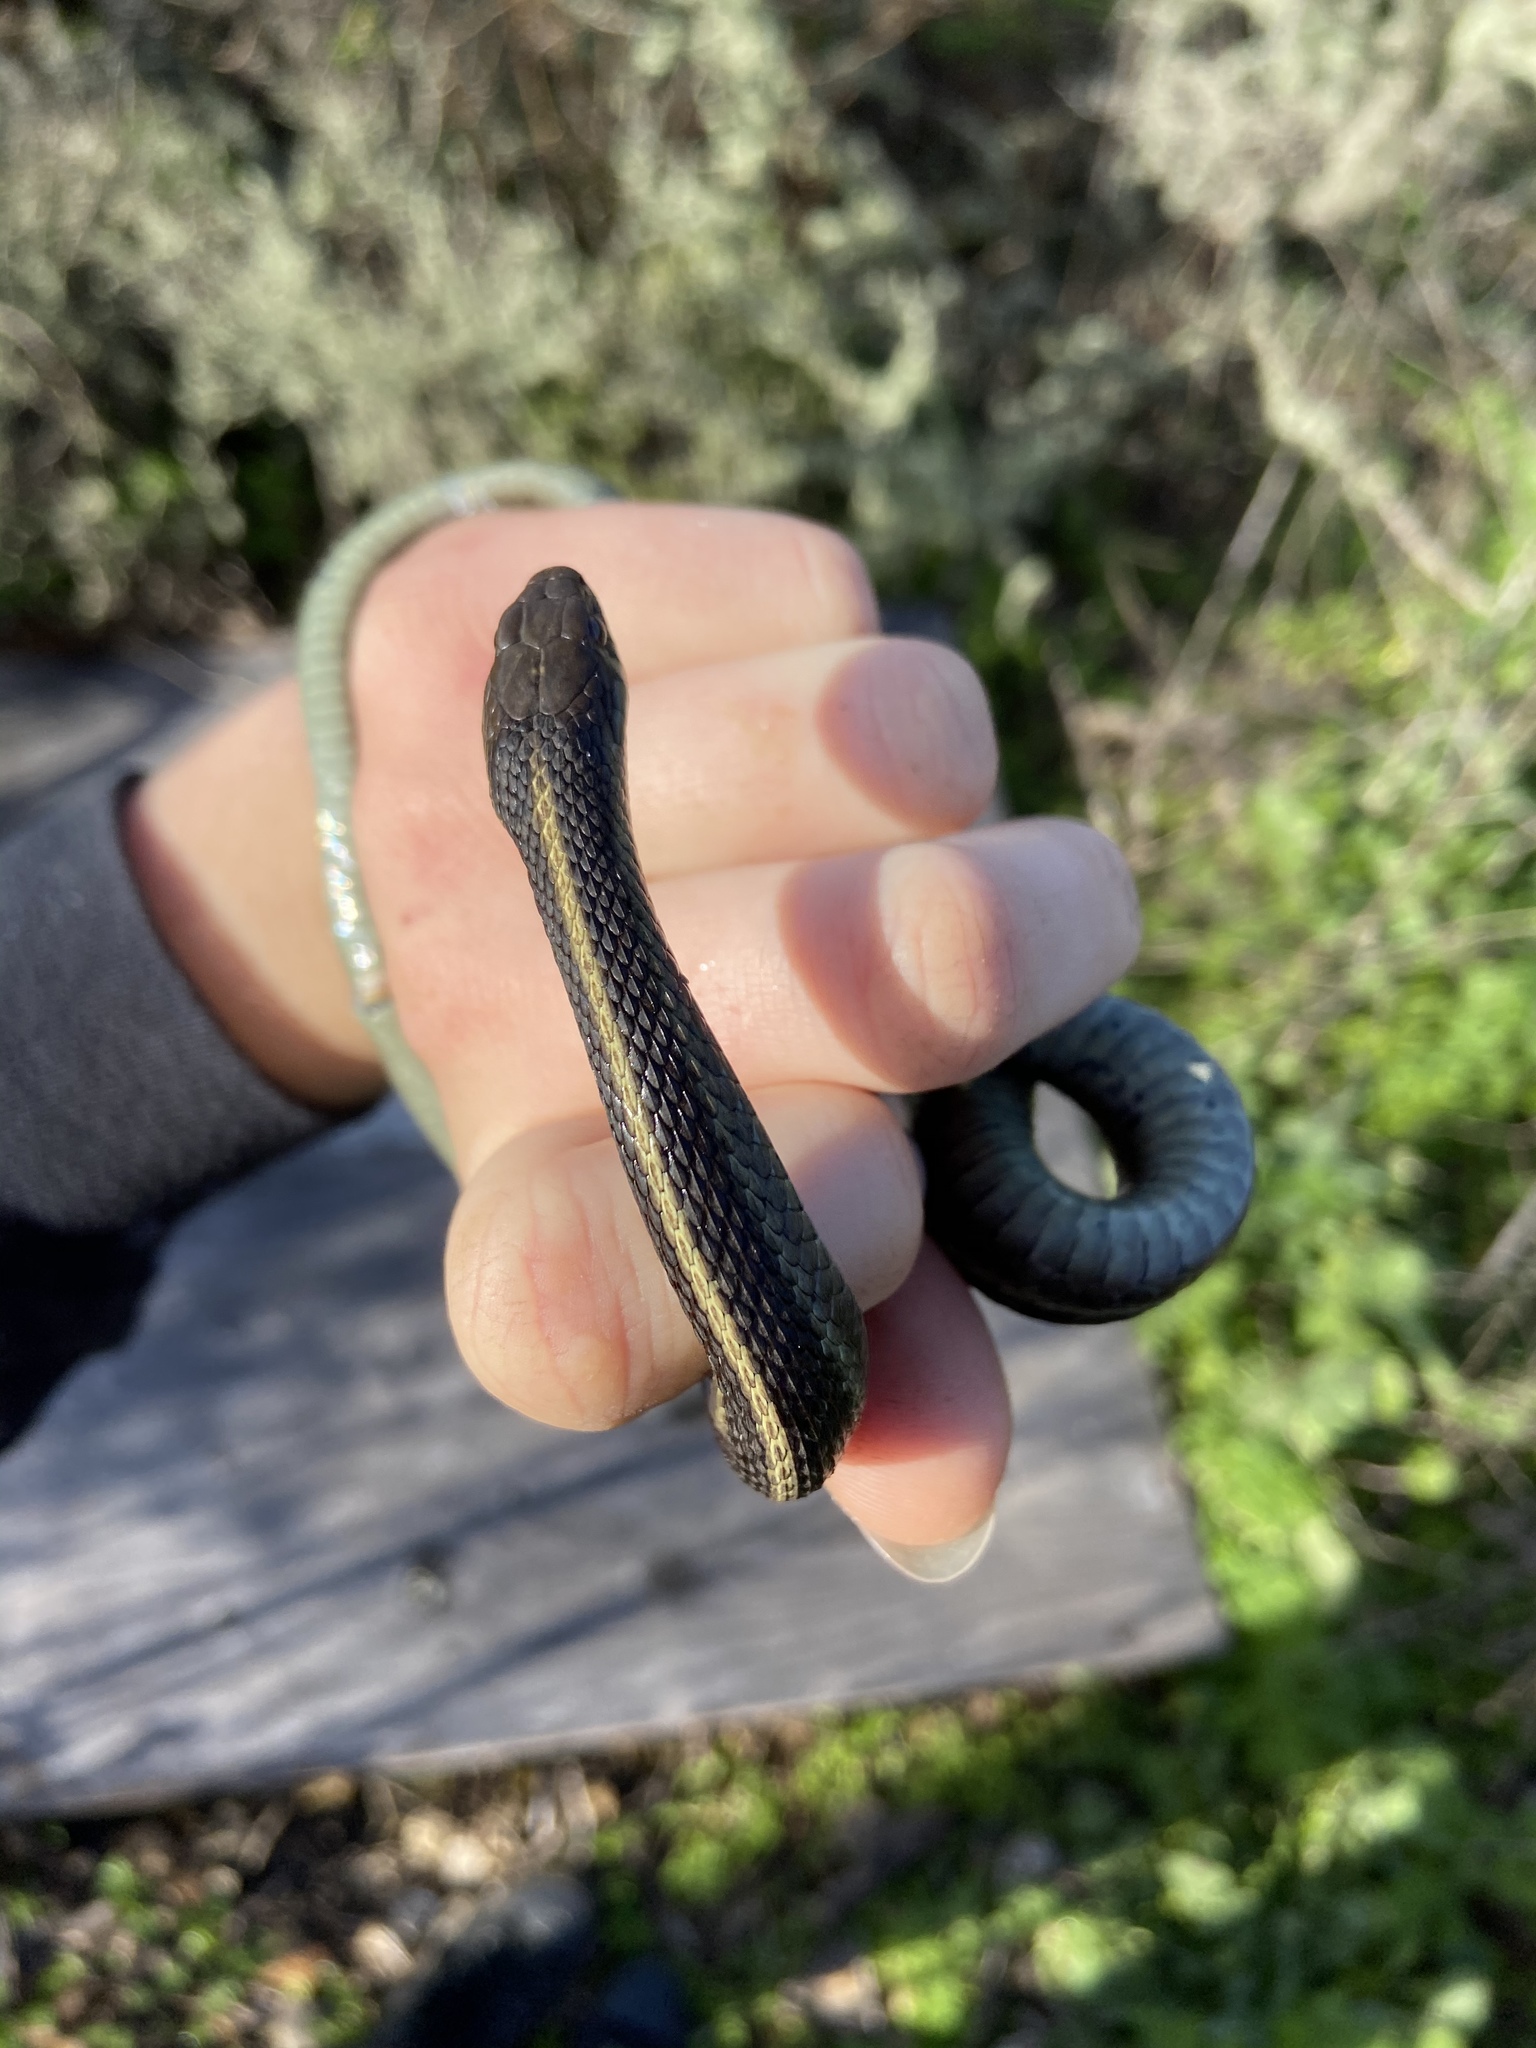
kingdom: Animalia
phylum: Chordata
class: Squamata
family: Colubridae
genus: Thamnophis
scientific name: Thamnophis elegans
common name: Western terrestrial garter snake
